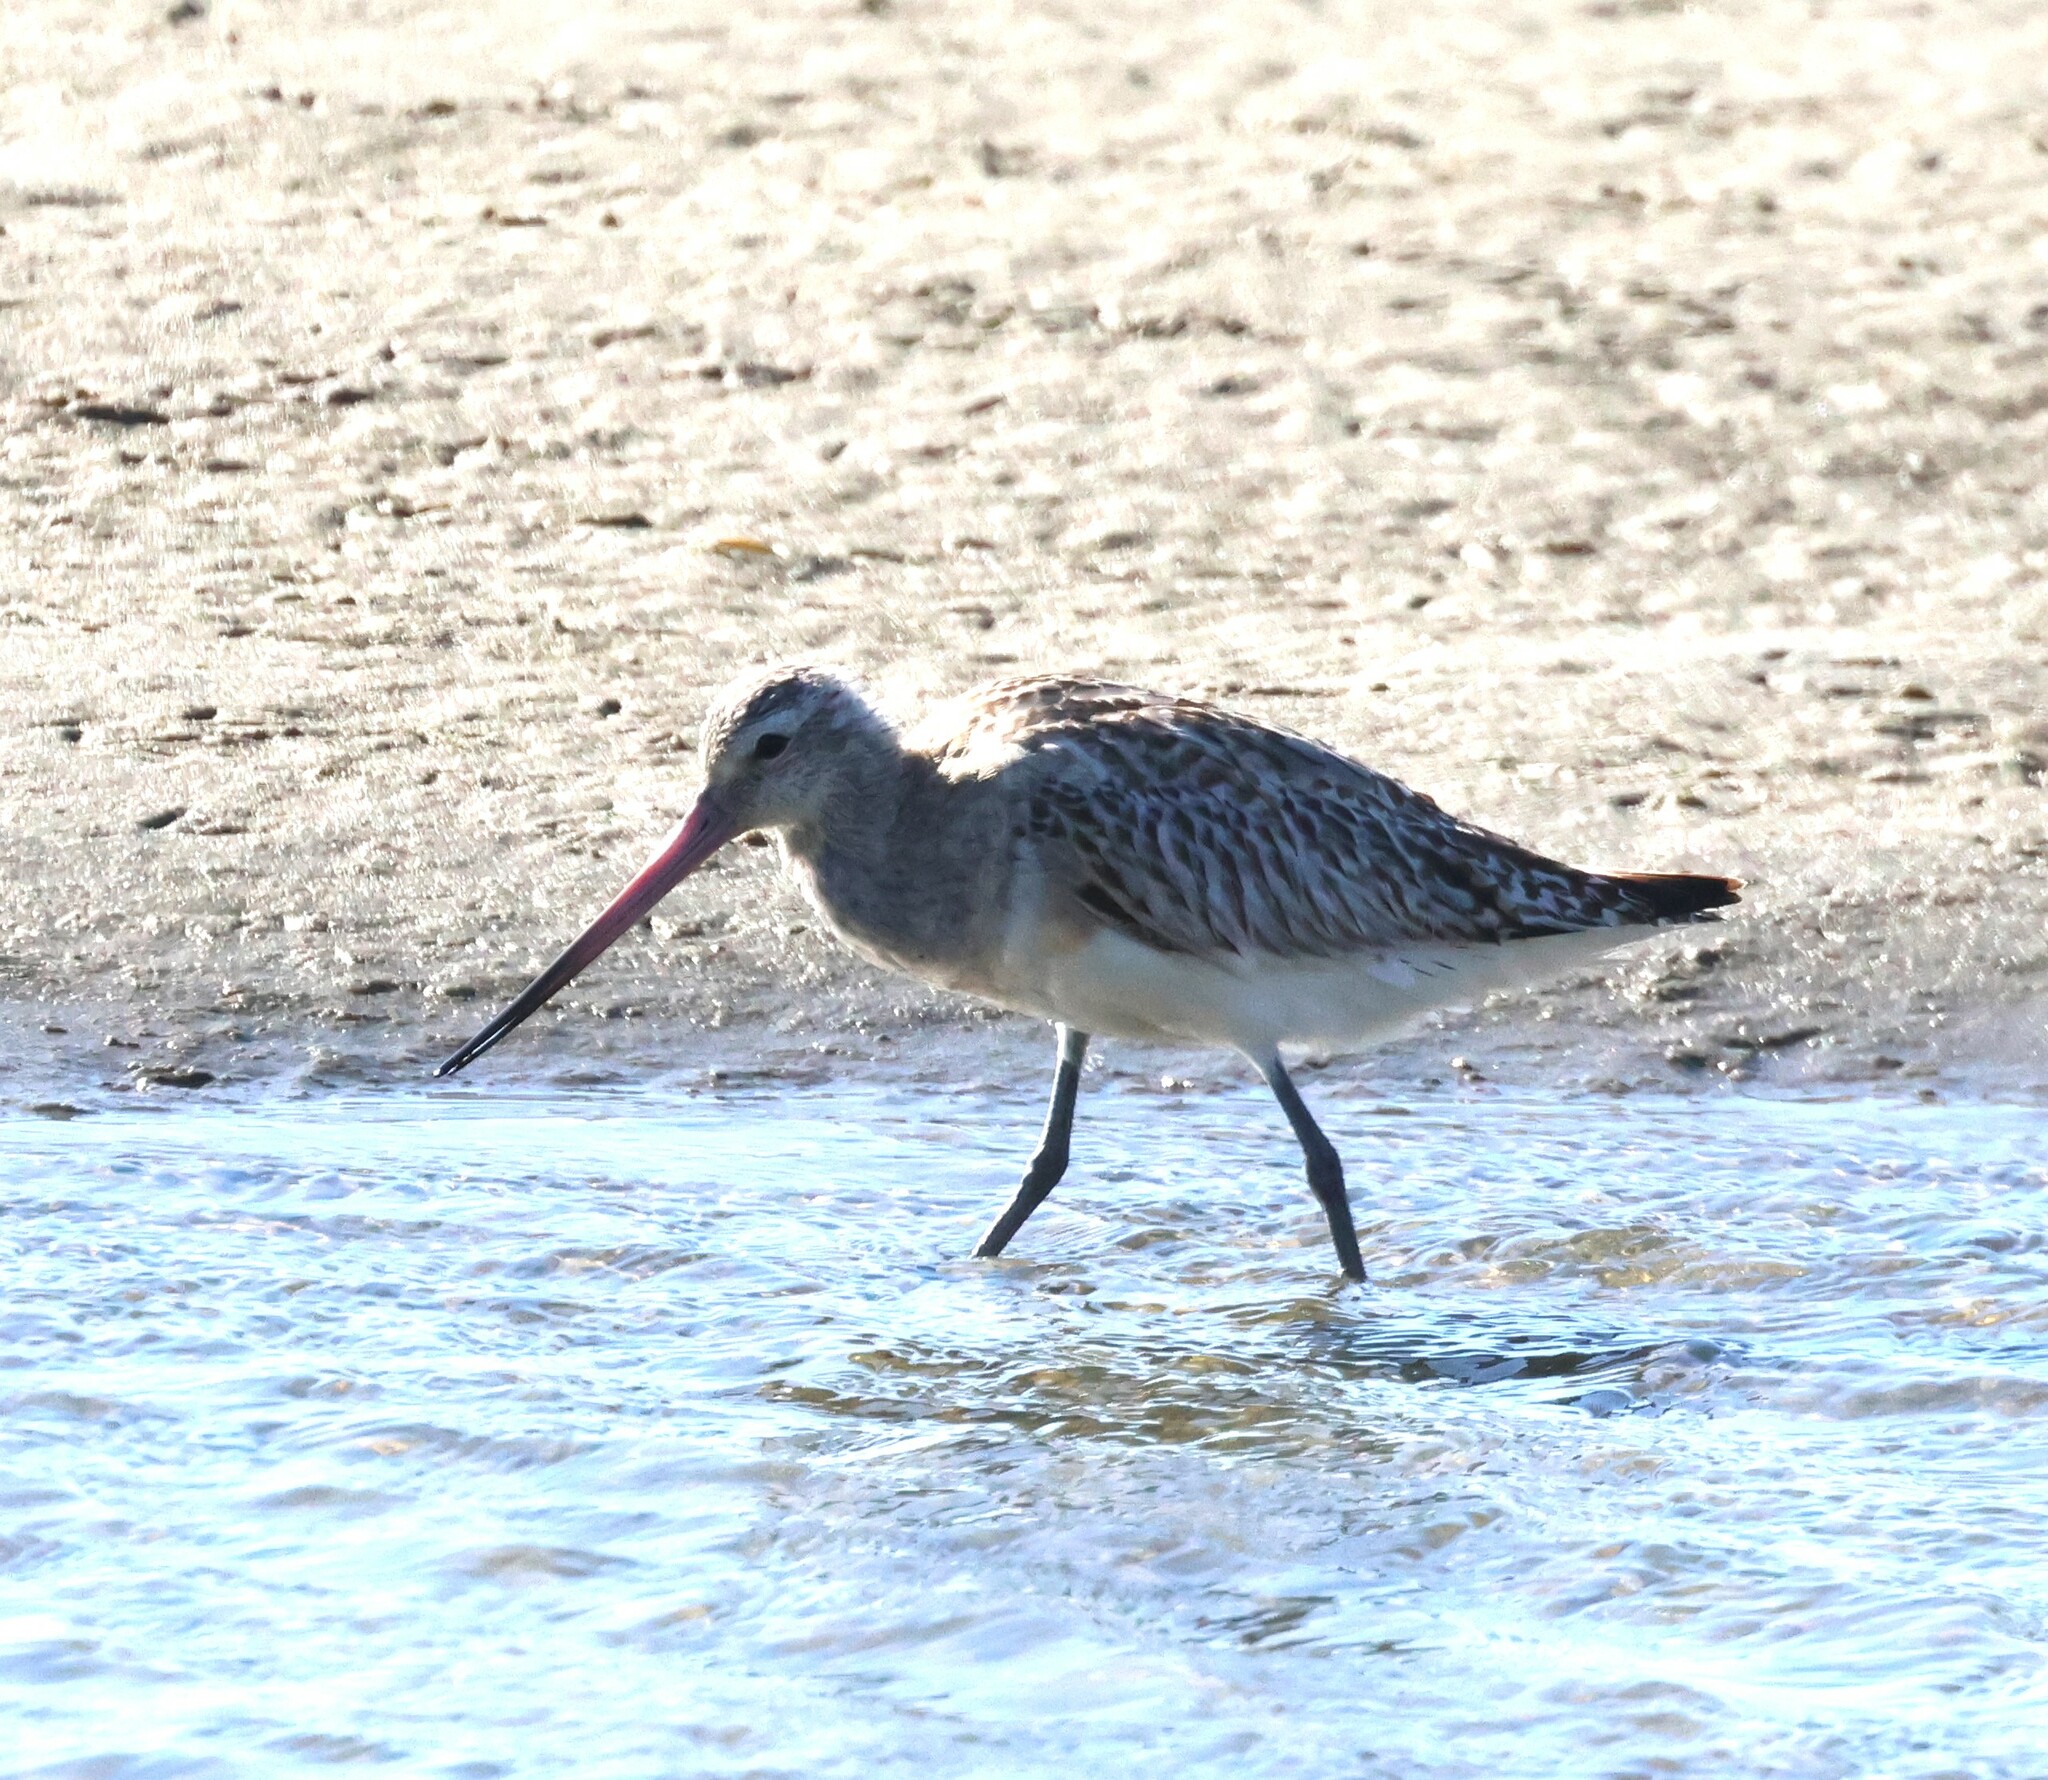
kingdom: Animalia
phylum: Chordata
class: Aves
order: Charadriiformes
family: Scolopacidae
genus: Limosa
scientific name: Limosa lapponica
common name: Bar-tailed godwit
